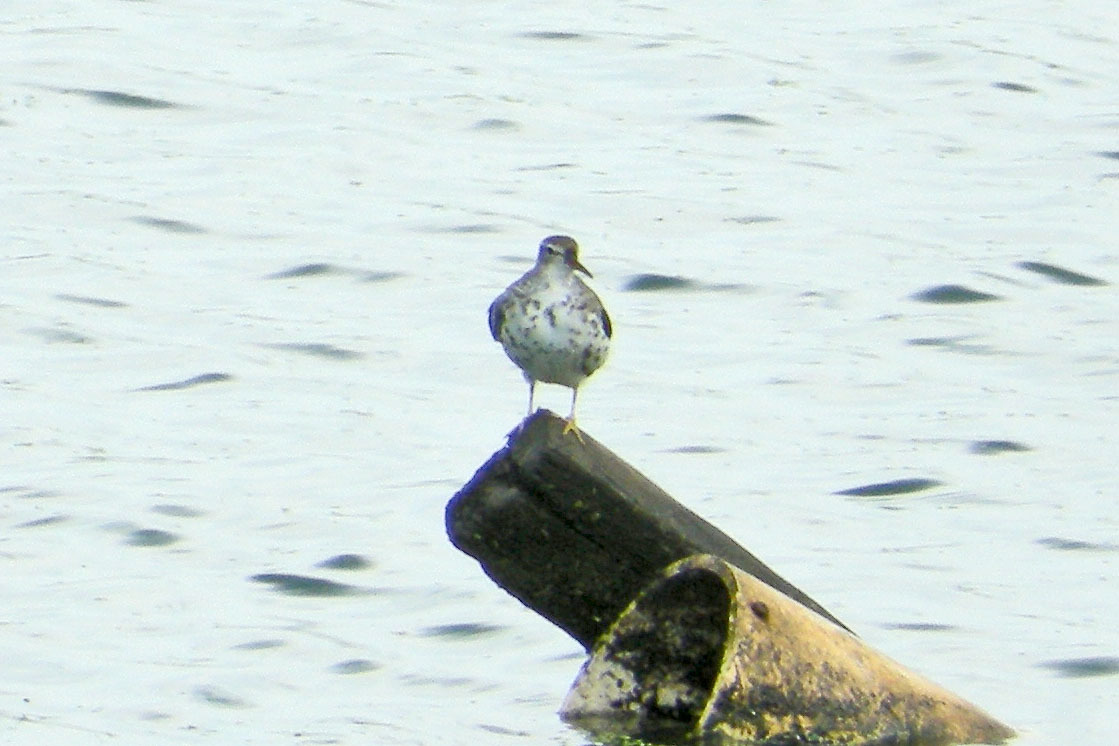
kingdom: Animalia
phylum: Chordata
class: Aves
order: Charadriiformes
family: Scolopacidae
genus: Actitis
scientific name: Actitis macularius
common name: Spotted sandpiper
